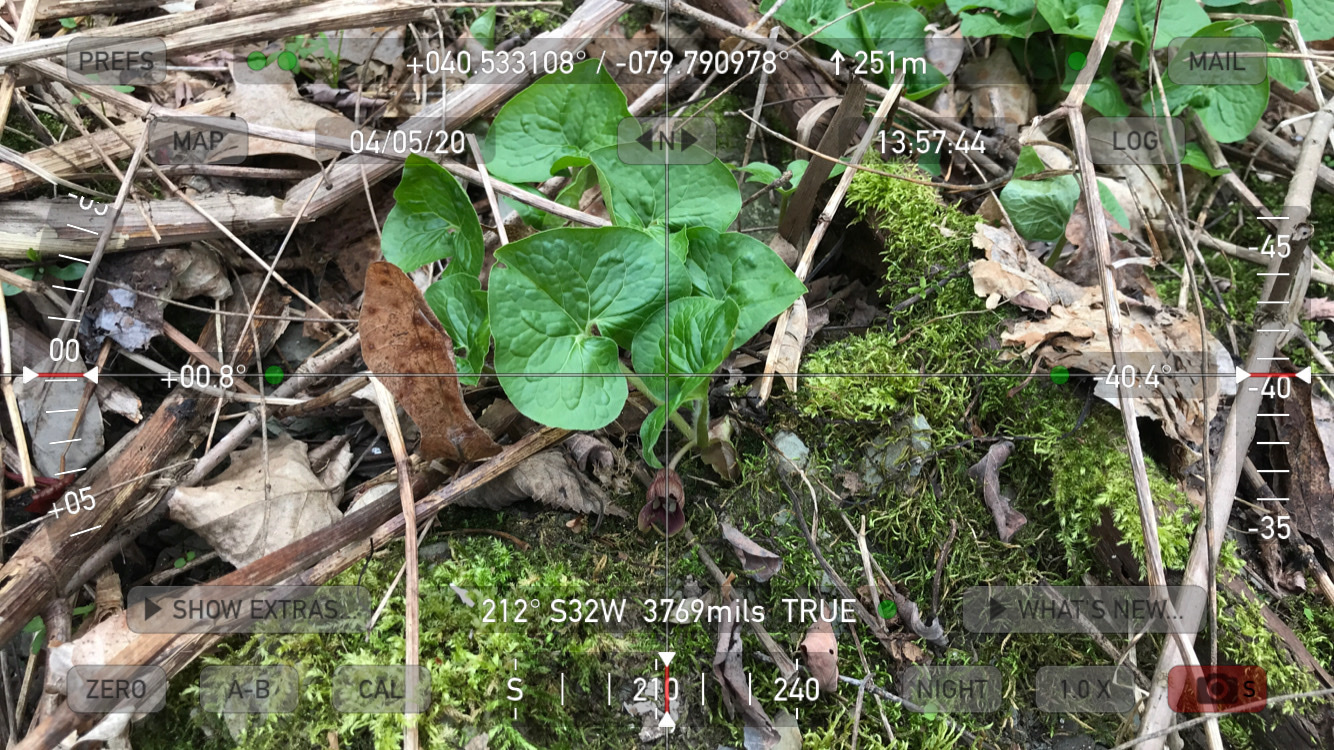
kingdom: Plantae
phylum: Tracheophyta
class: Magnoliopsida
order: Piperales
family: Aristolochiaceae
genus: Asarum
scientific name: Asarum canadense
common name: Wild ginger
